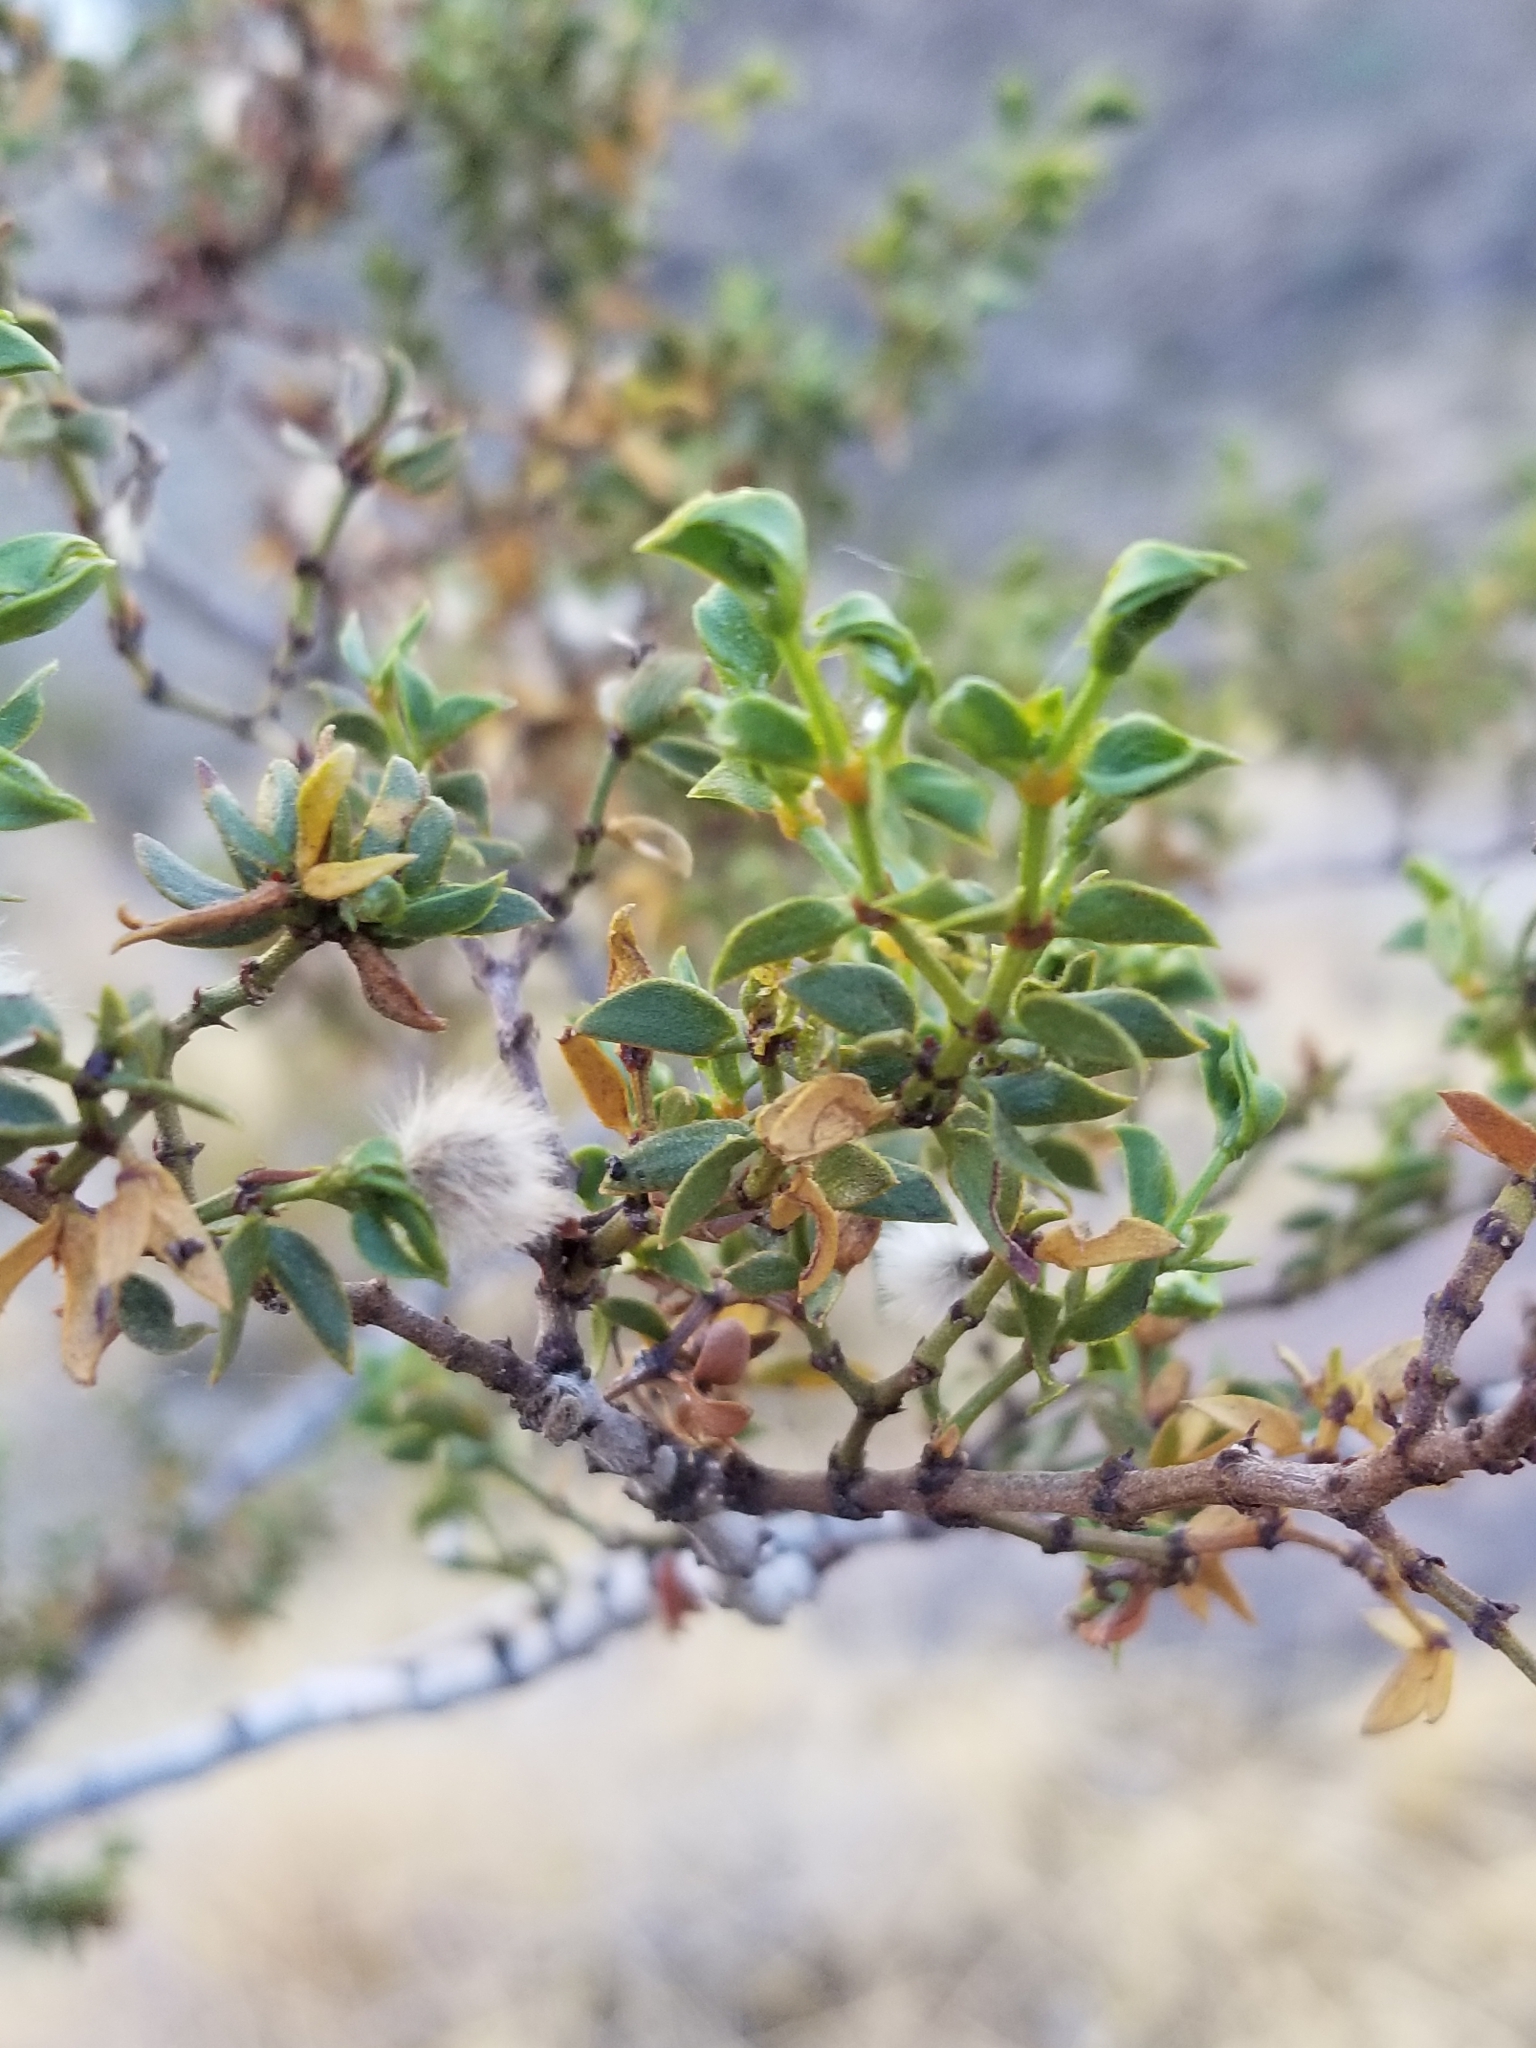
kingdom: Plantae
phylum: Tracheophyta
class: Magnoliopsida
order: Zygophyllales
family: Zygophyllaceae
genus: Larrea
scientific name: Larrea tridentata
